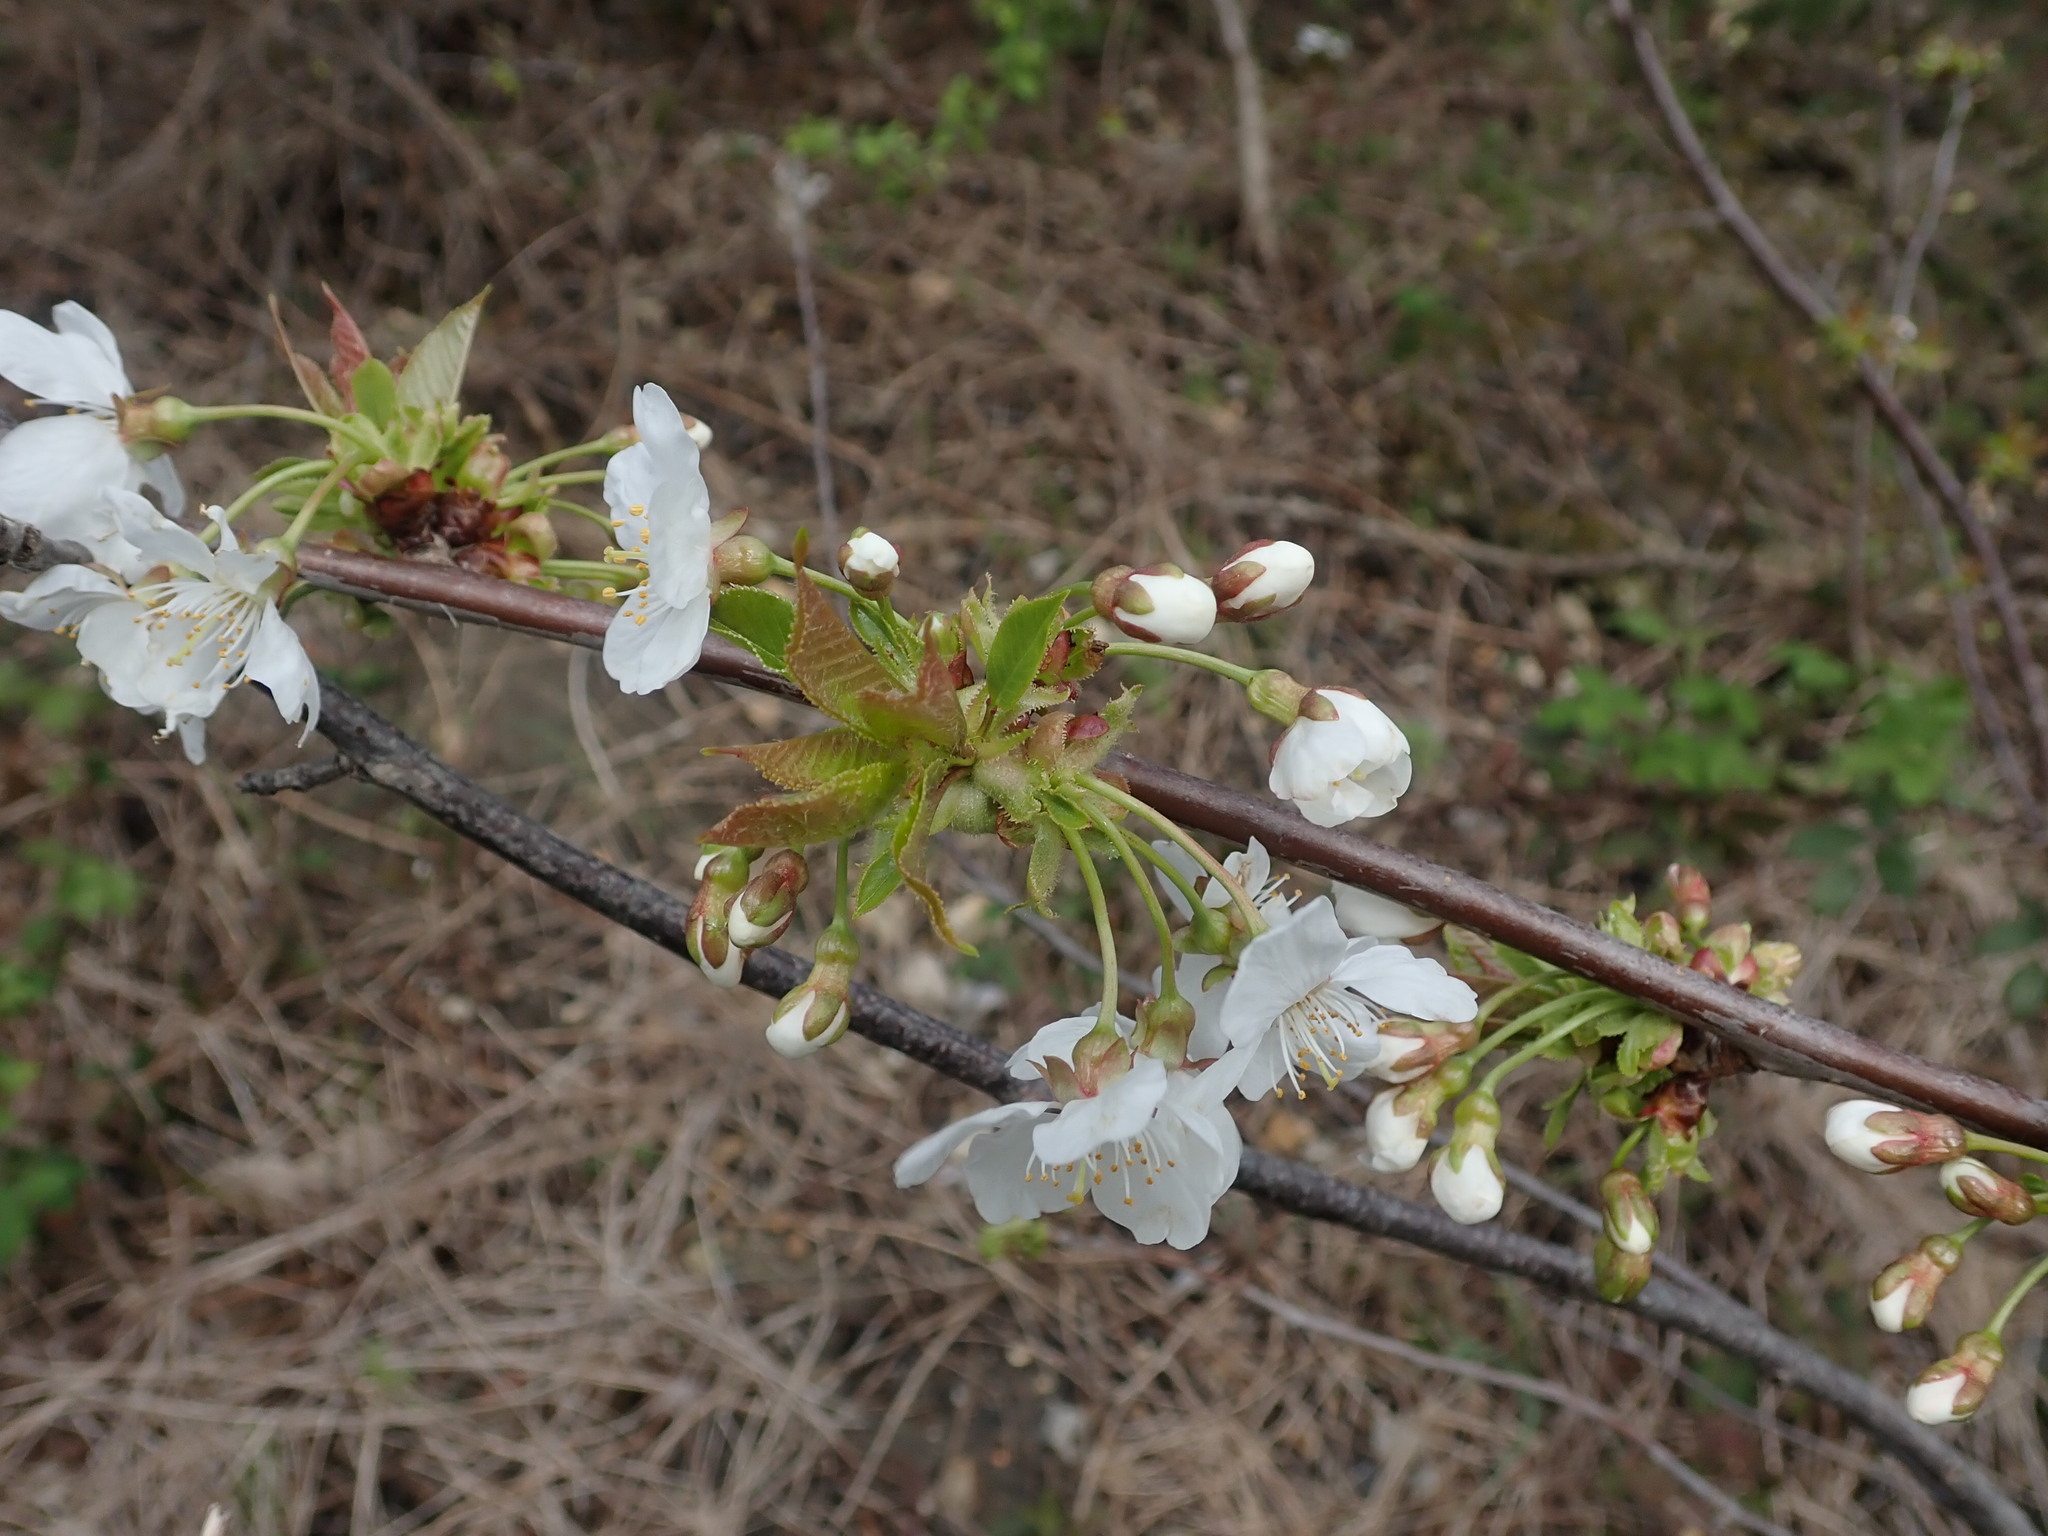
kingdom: Plantae
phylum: Tracheophyta
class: Magnoliopsida
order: Rosales
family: Rosaceae
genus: Prunus
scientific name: Prunus avium
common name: Sweet cherry
